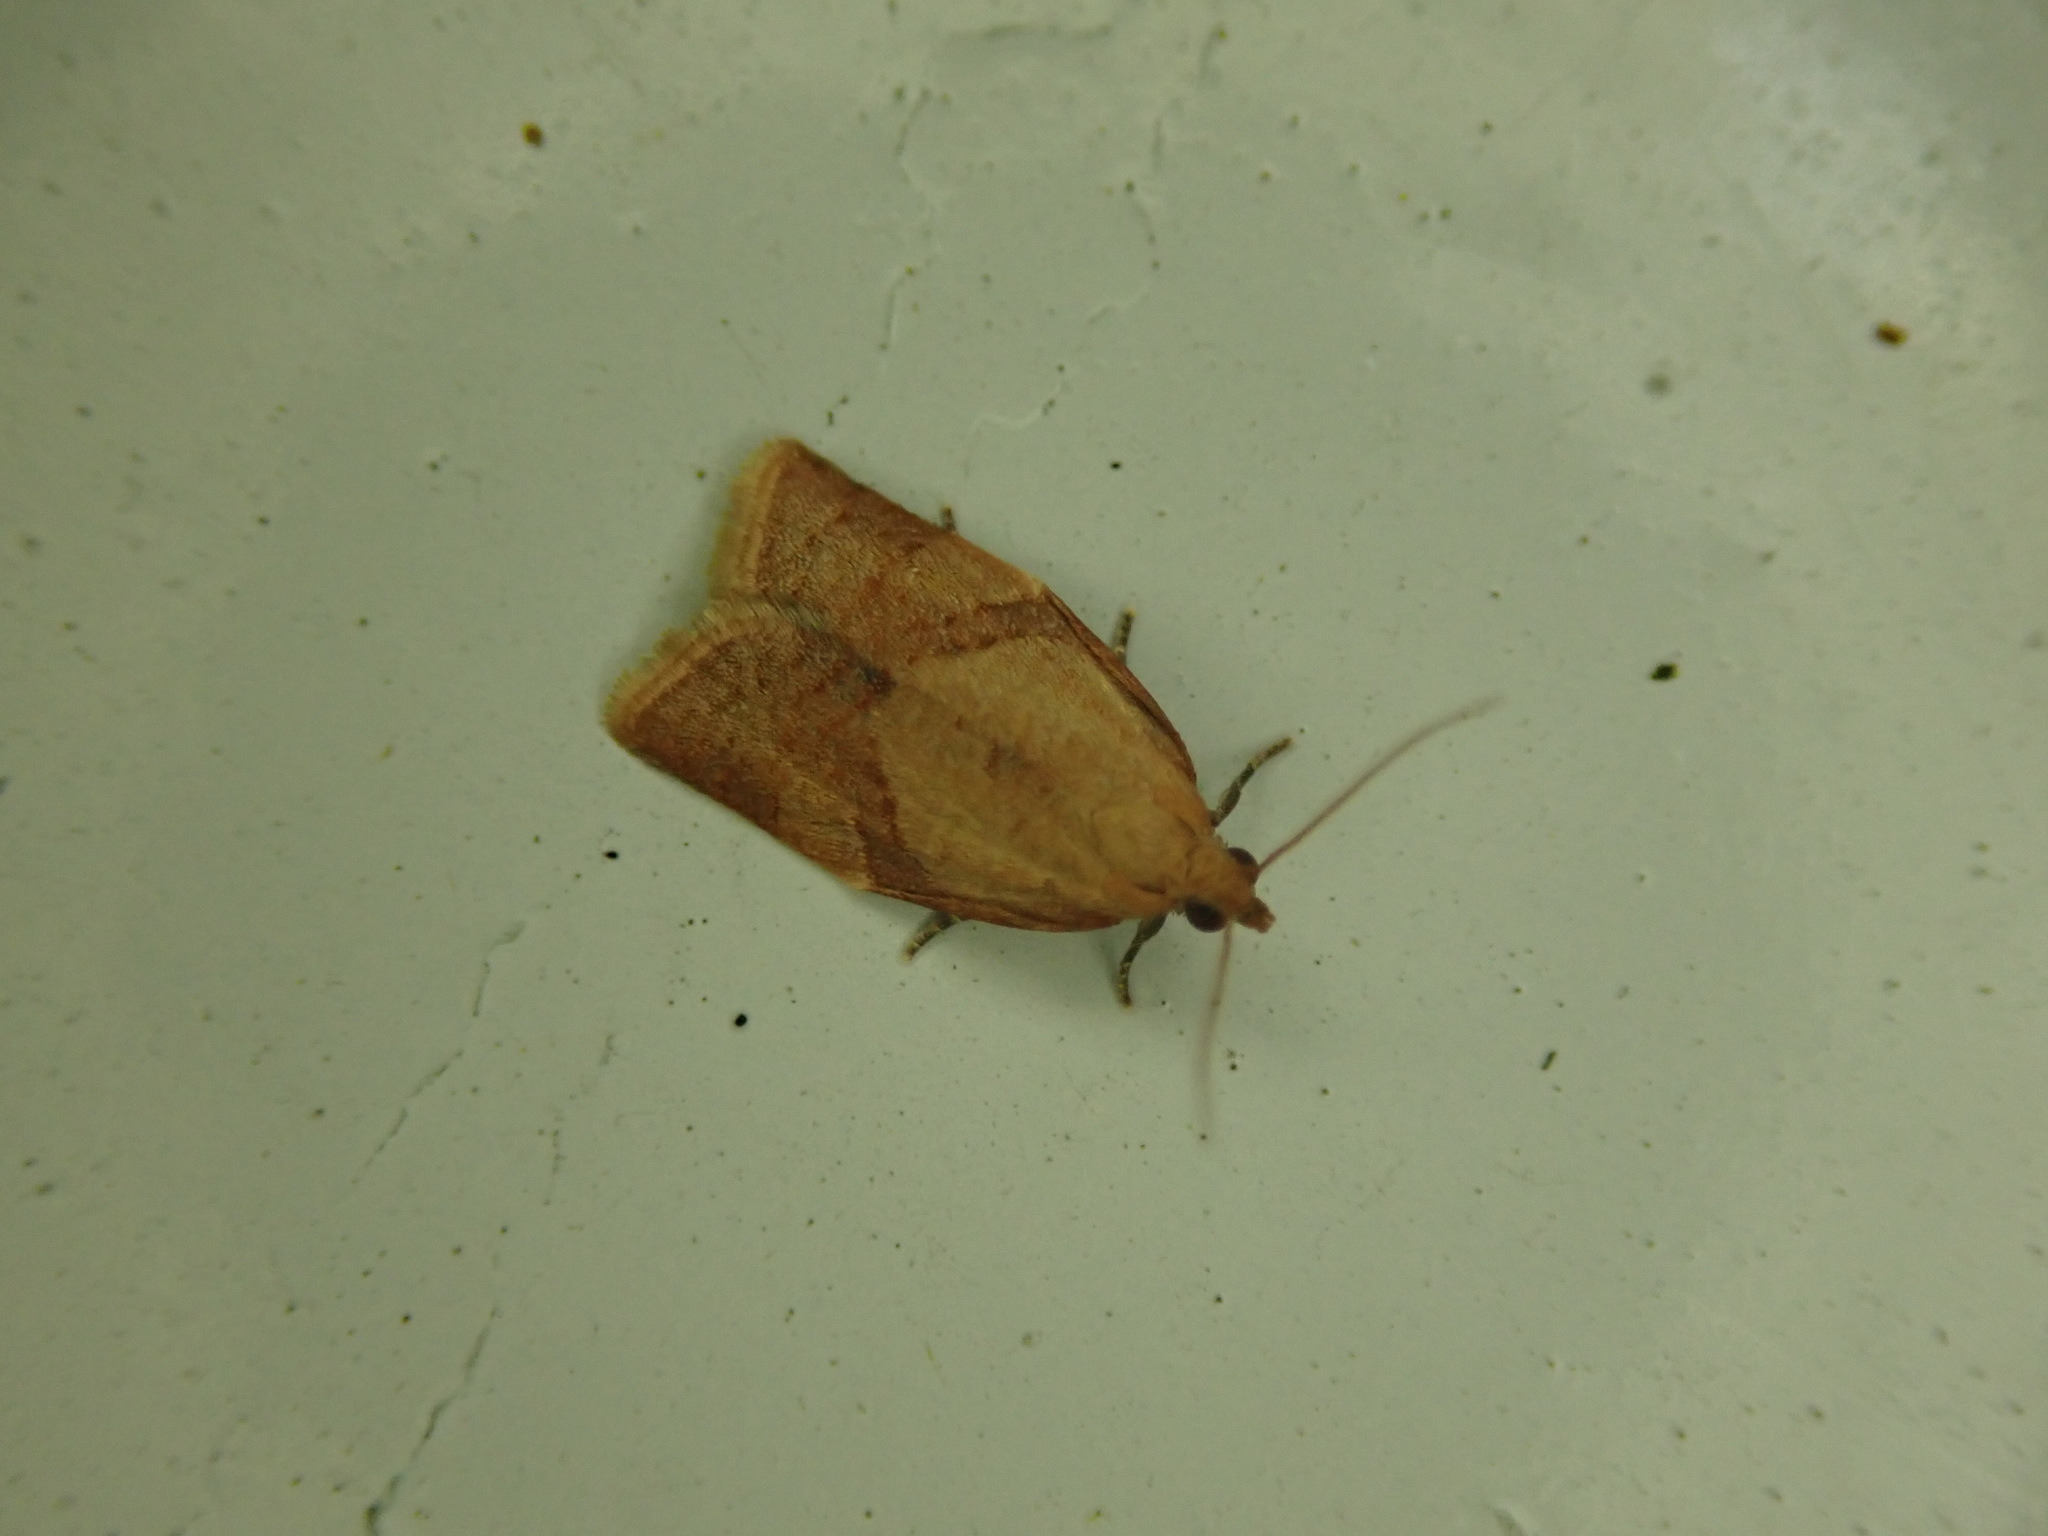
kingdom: Animalia
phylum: Arthropoda
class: Insecta
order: Lepidoptera
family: Tortricidae
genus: Clepsis
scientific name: Clepsis consimilana
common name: Privet tortrix
